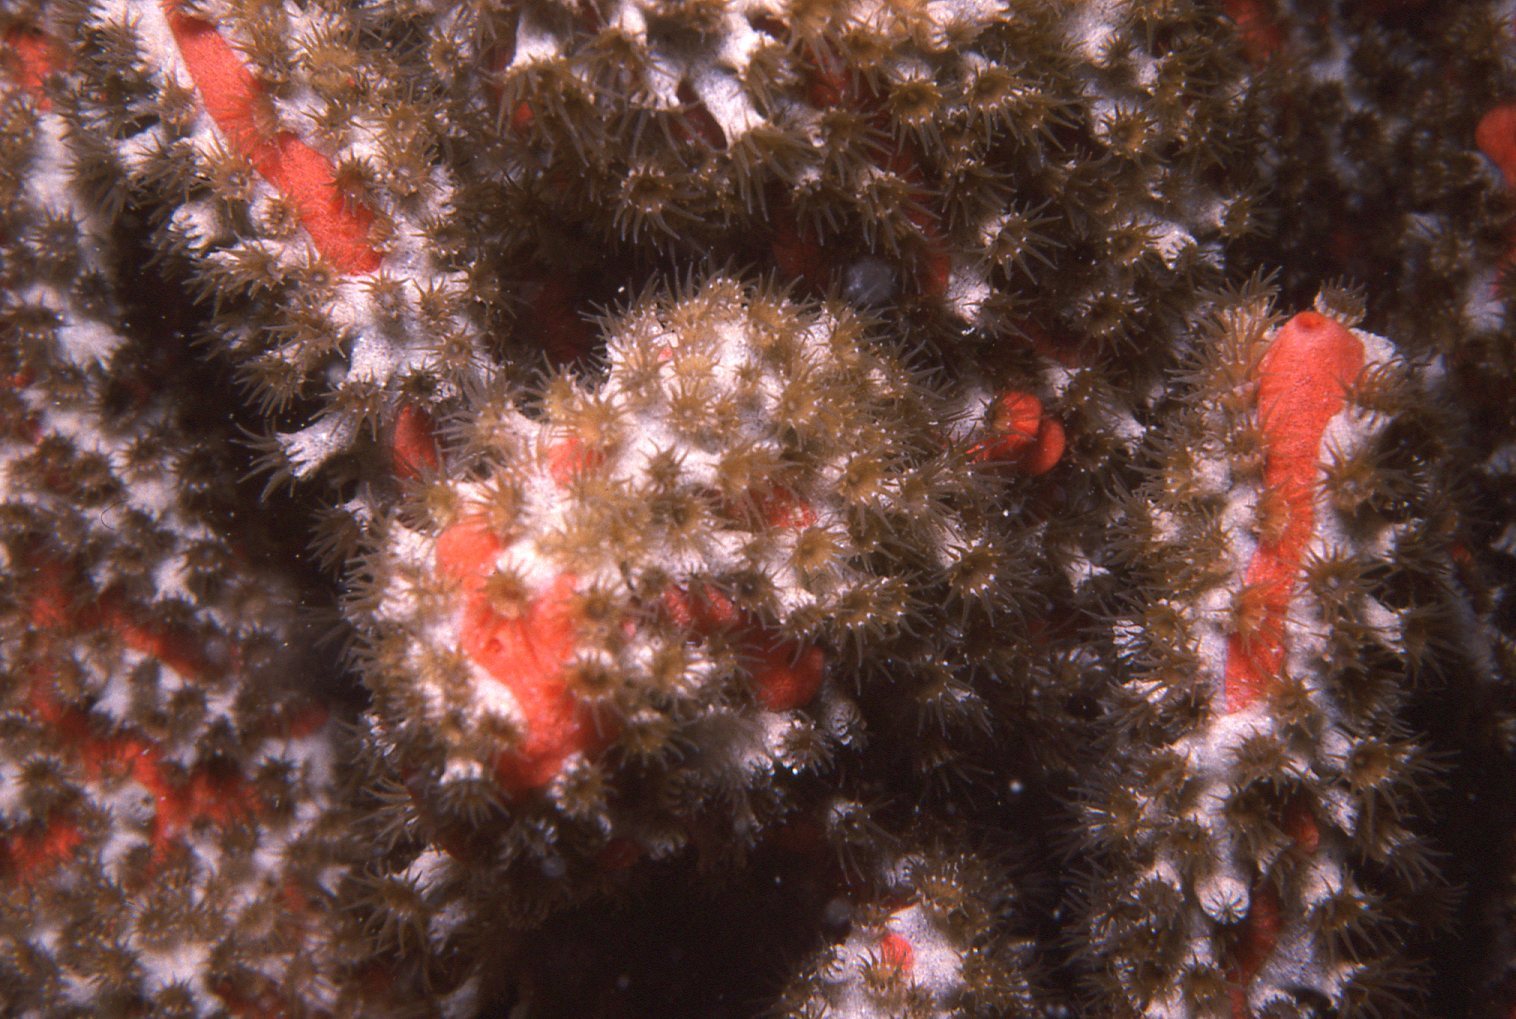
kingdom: Animalia
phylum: Cnidaria
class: Anthozoa
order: Zoantharia
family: Epizoanthidae
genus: Epizoanthus
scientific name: Epizoanthus sabulosus
